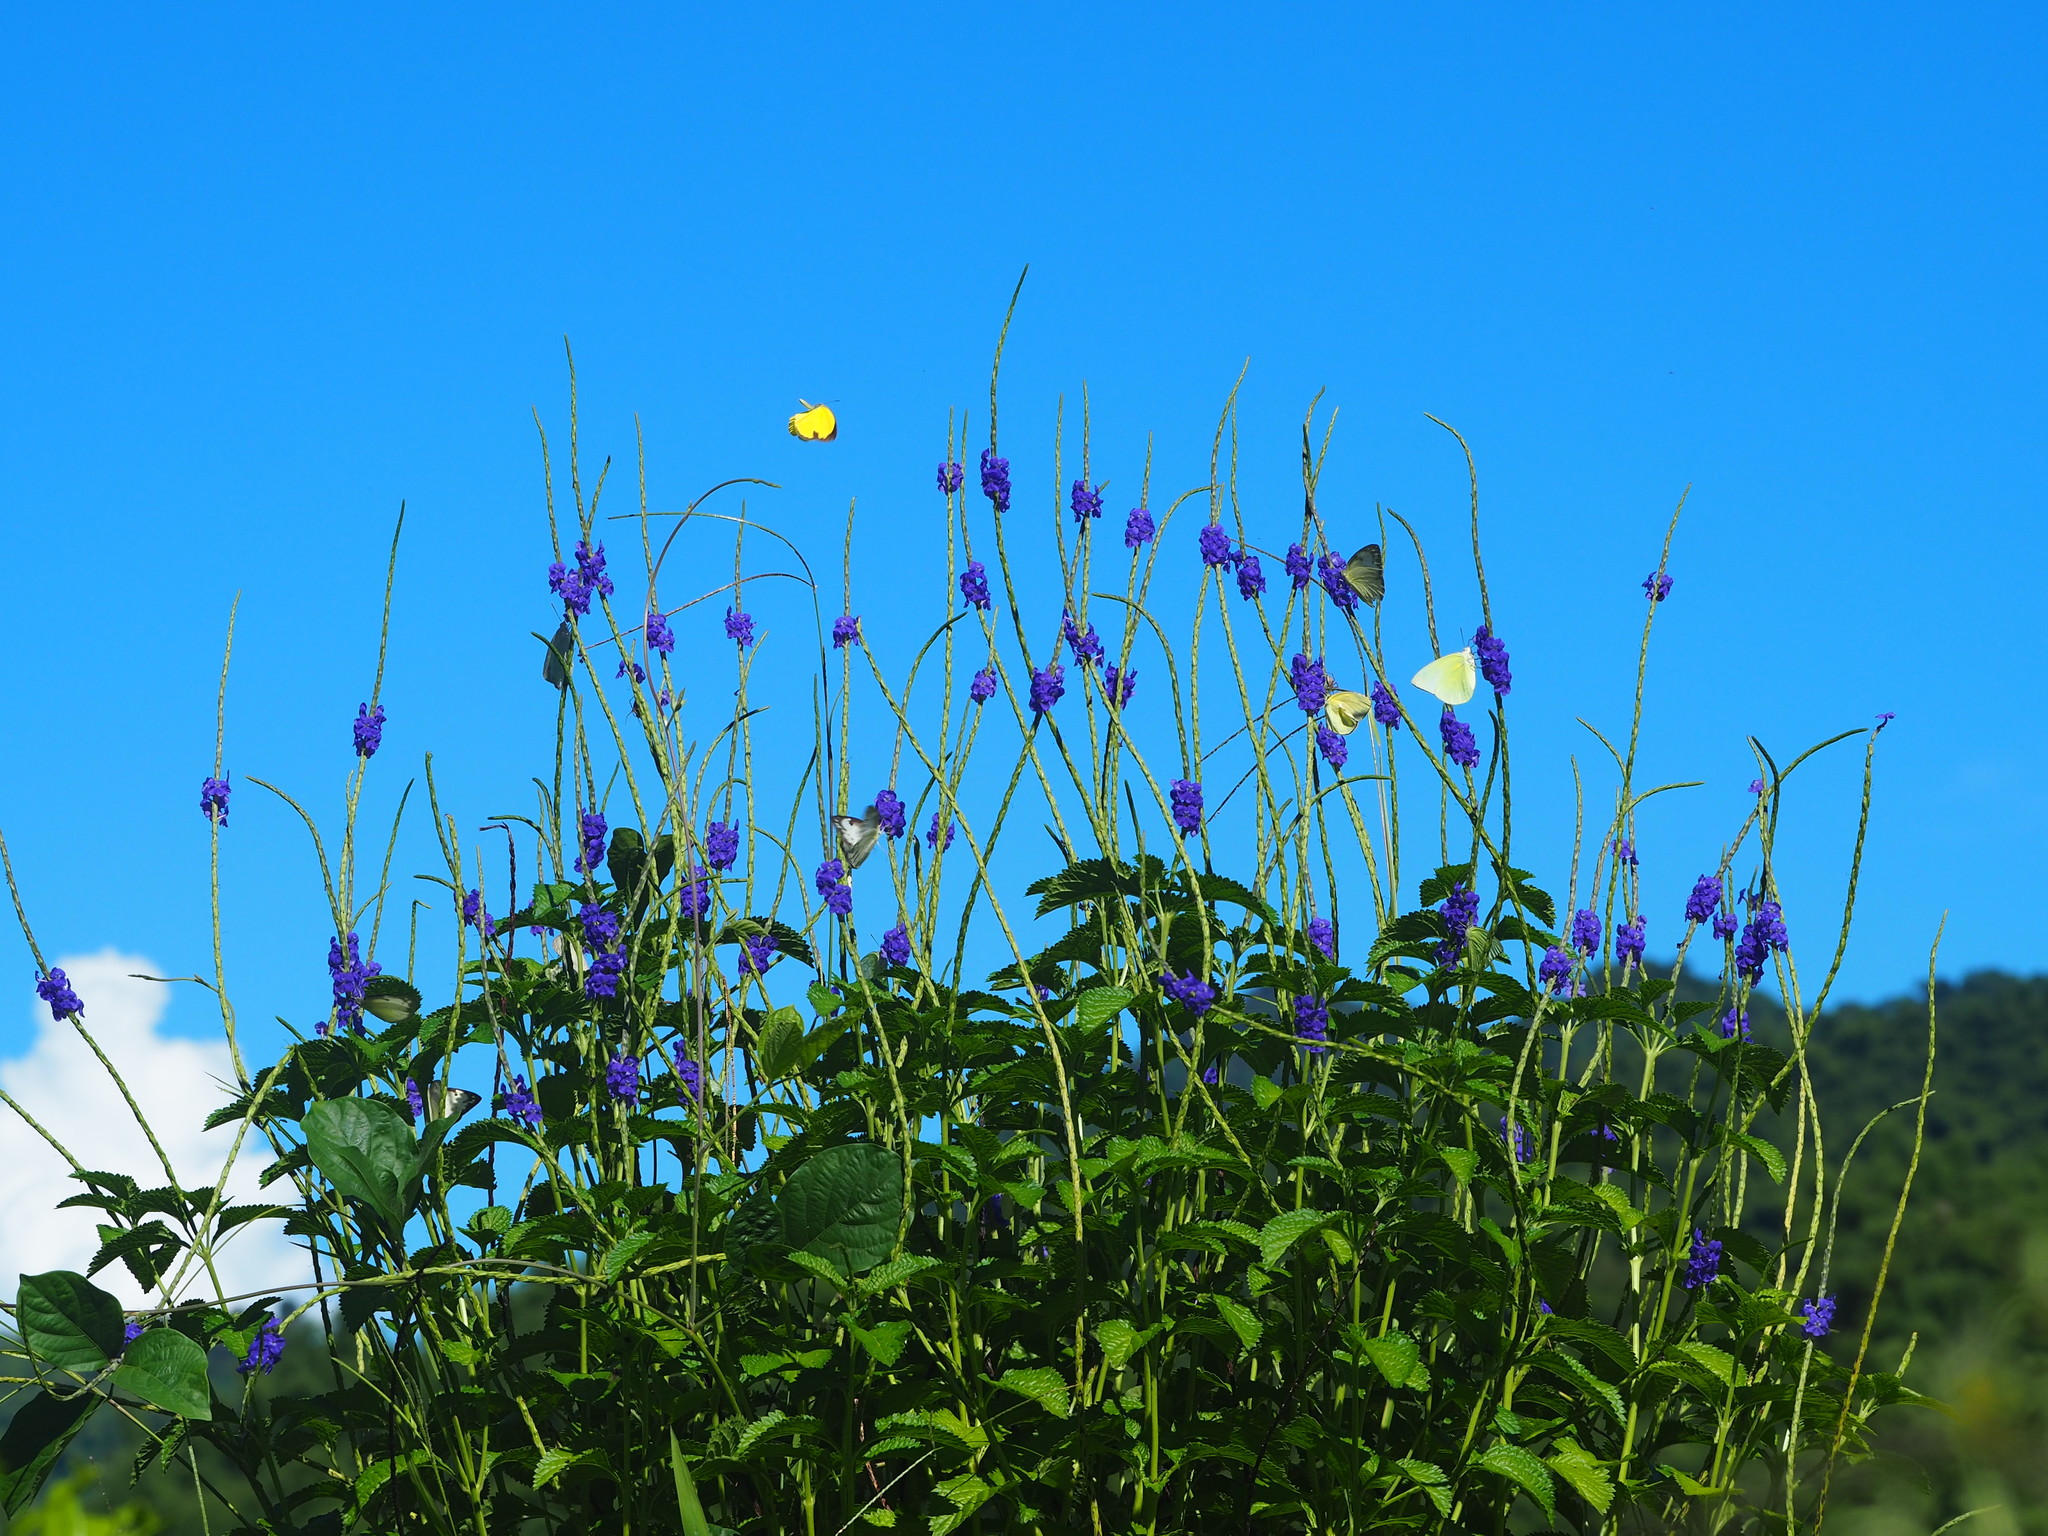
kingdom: Plantae
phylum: Tracheophyta
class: Magnoliopsida
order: Lamiales
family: Verbenaceae
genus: Stachytarpheta
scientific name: Stachytarpheta urticifolia
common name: Nettleleaf velvetberry
